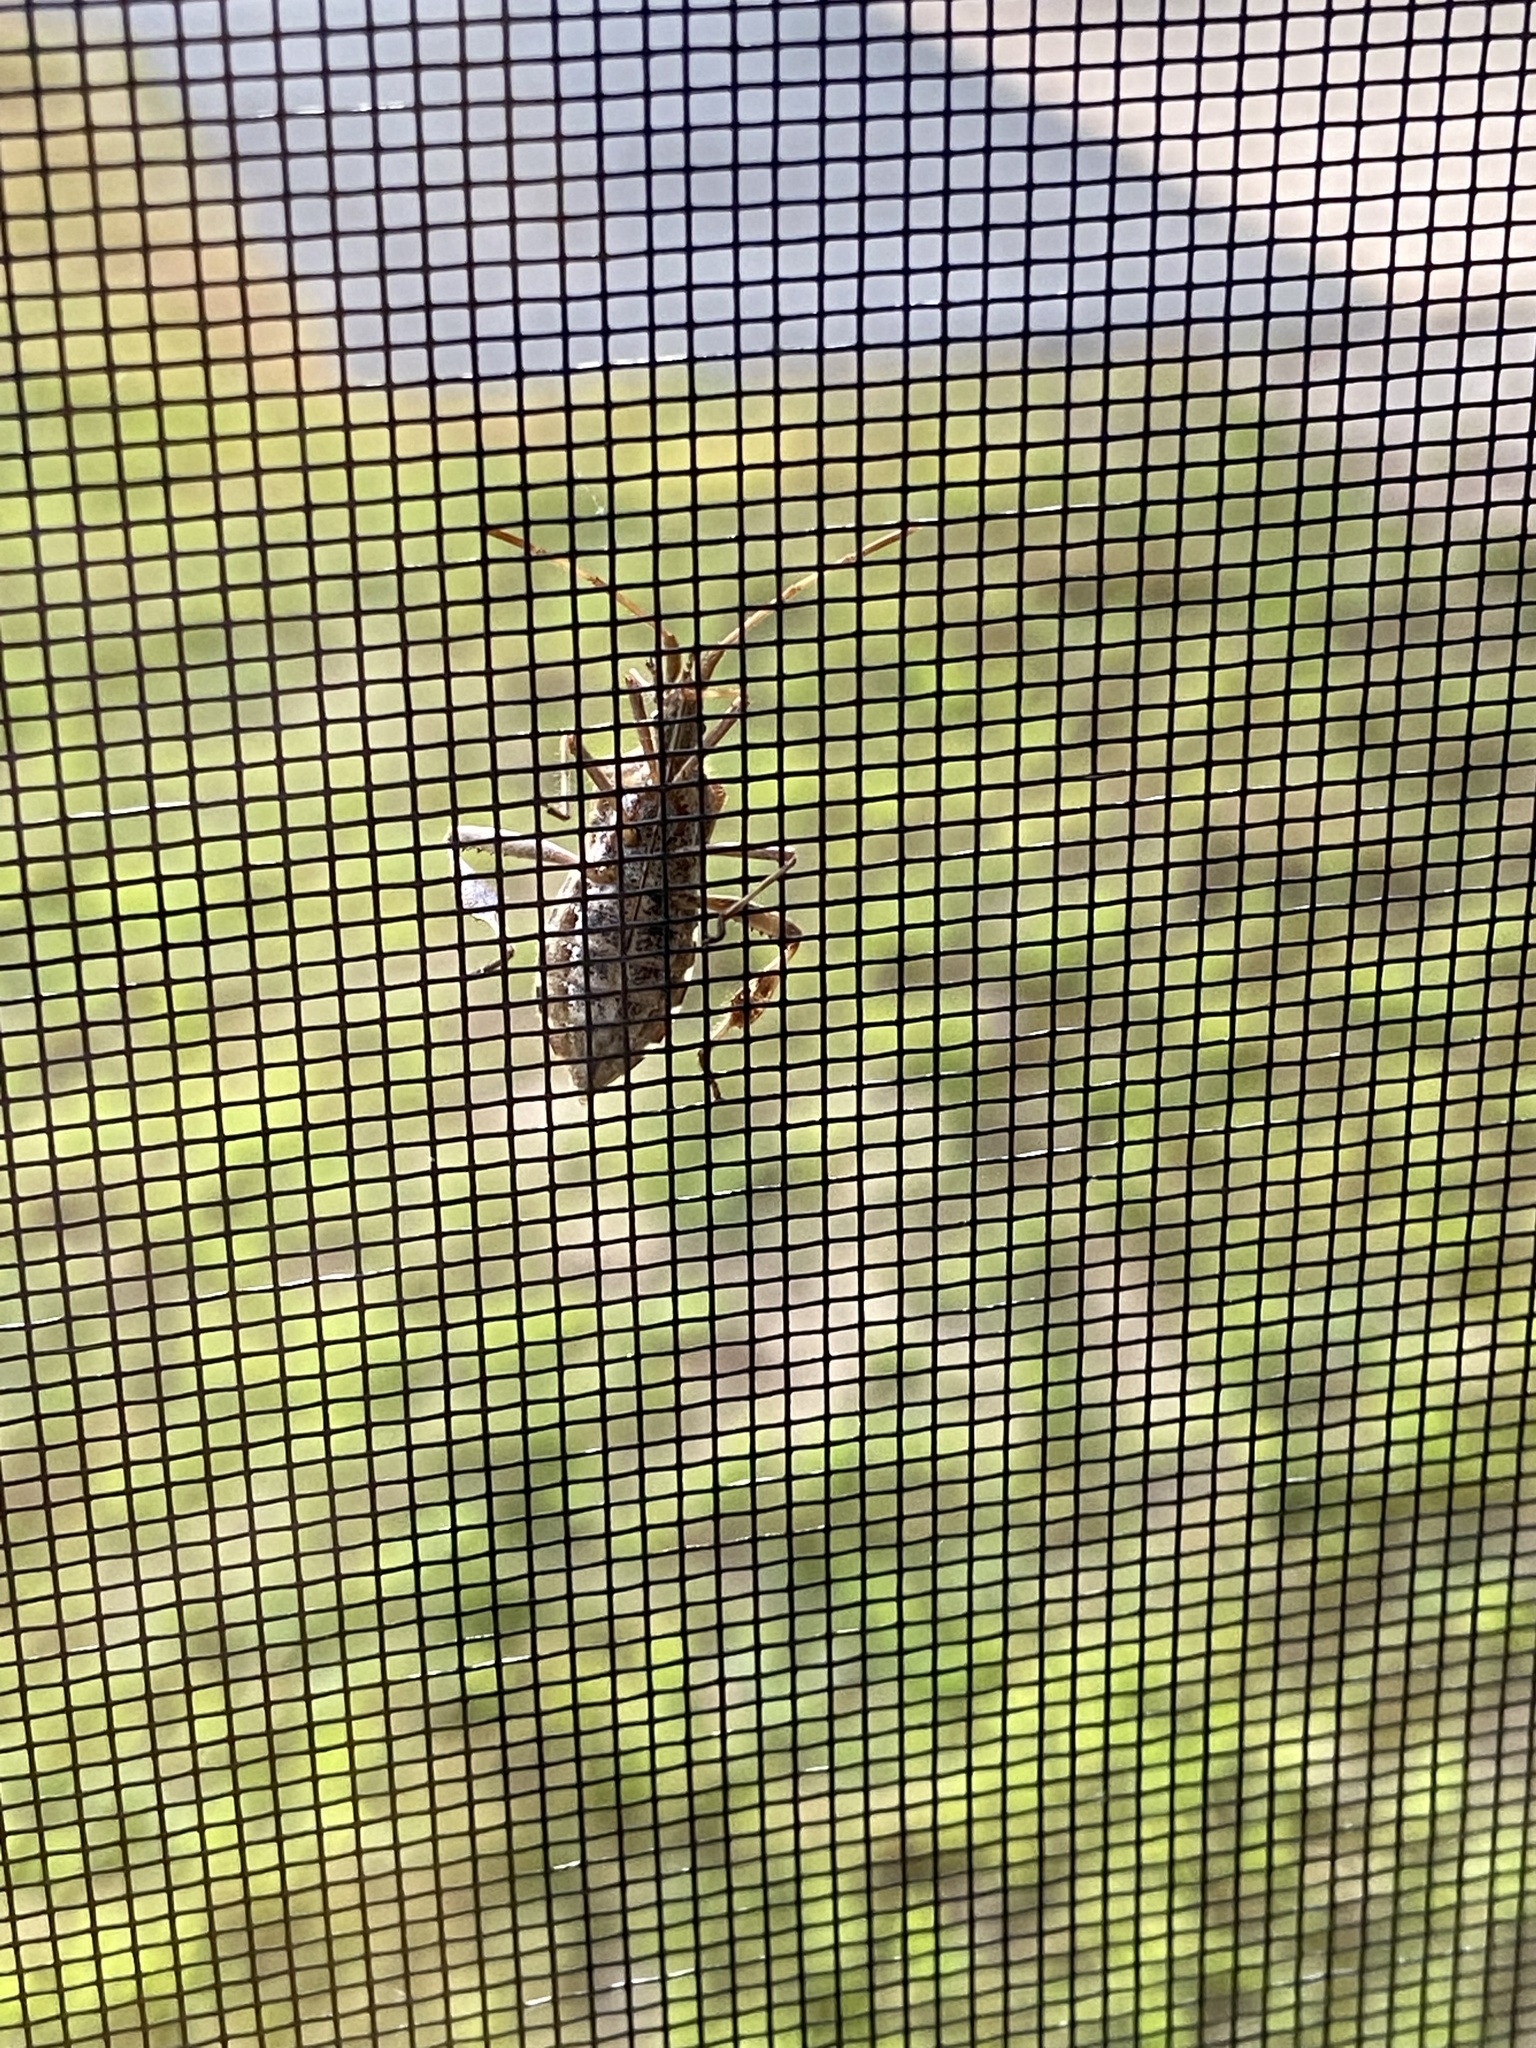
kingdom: Animalia
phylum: Arthropoda
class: Insecta
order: Hemiptera
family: Coreidae
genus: Leptoglossus
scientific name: Leptoglossus occidentalis
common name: Western conifer-seed bug
